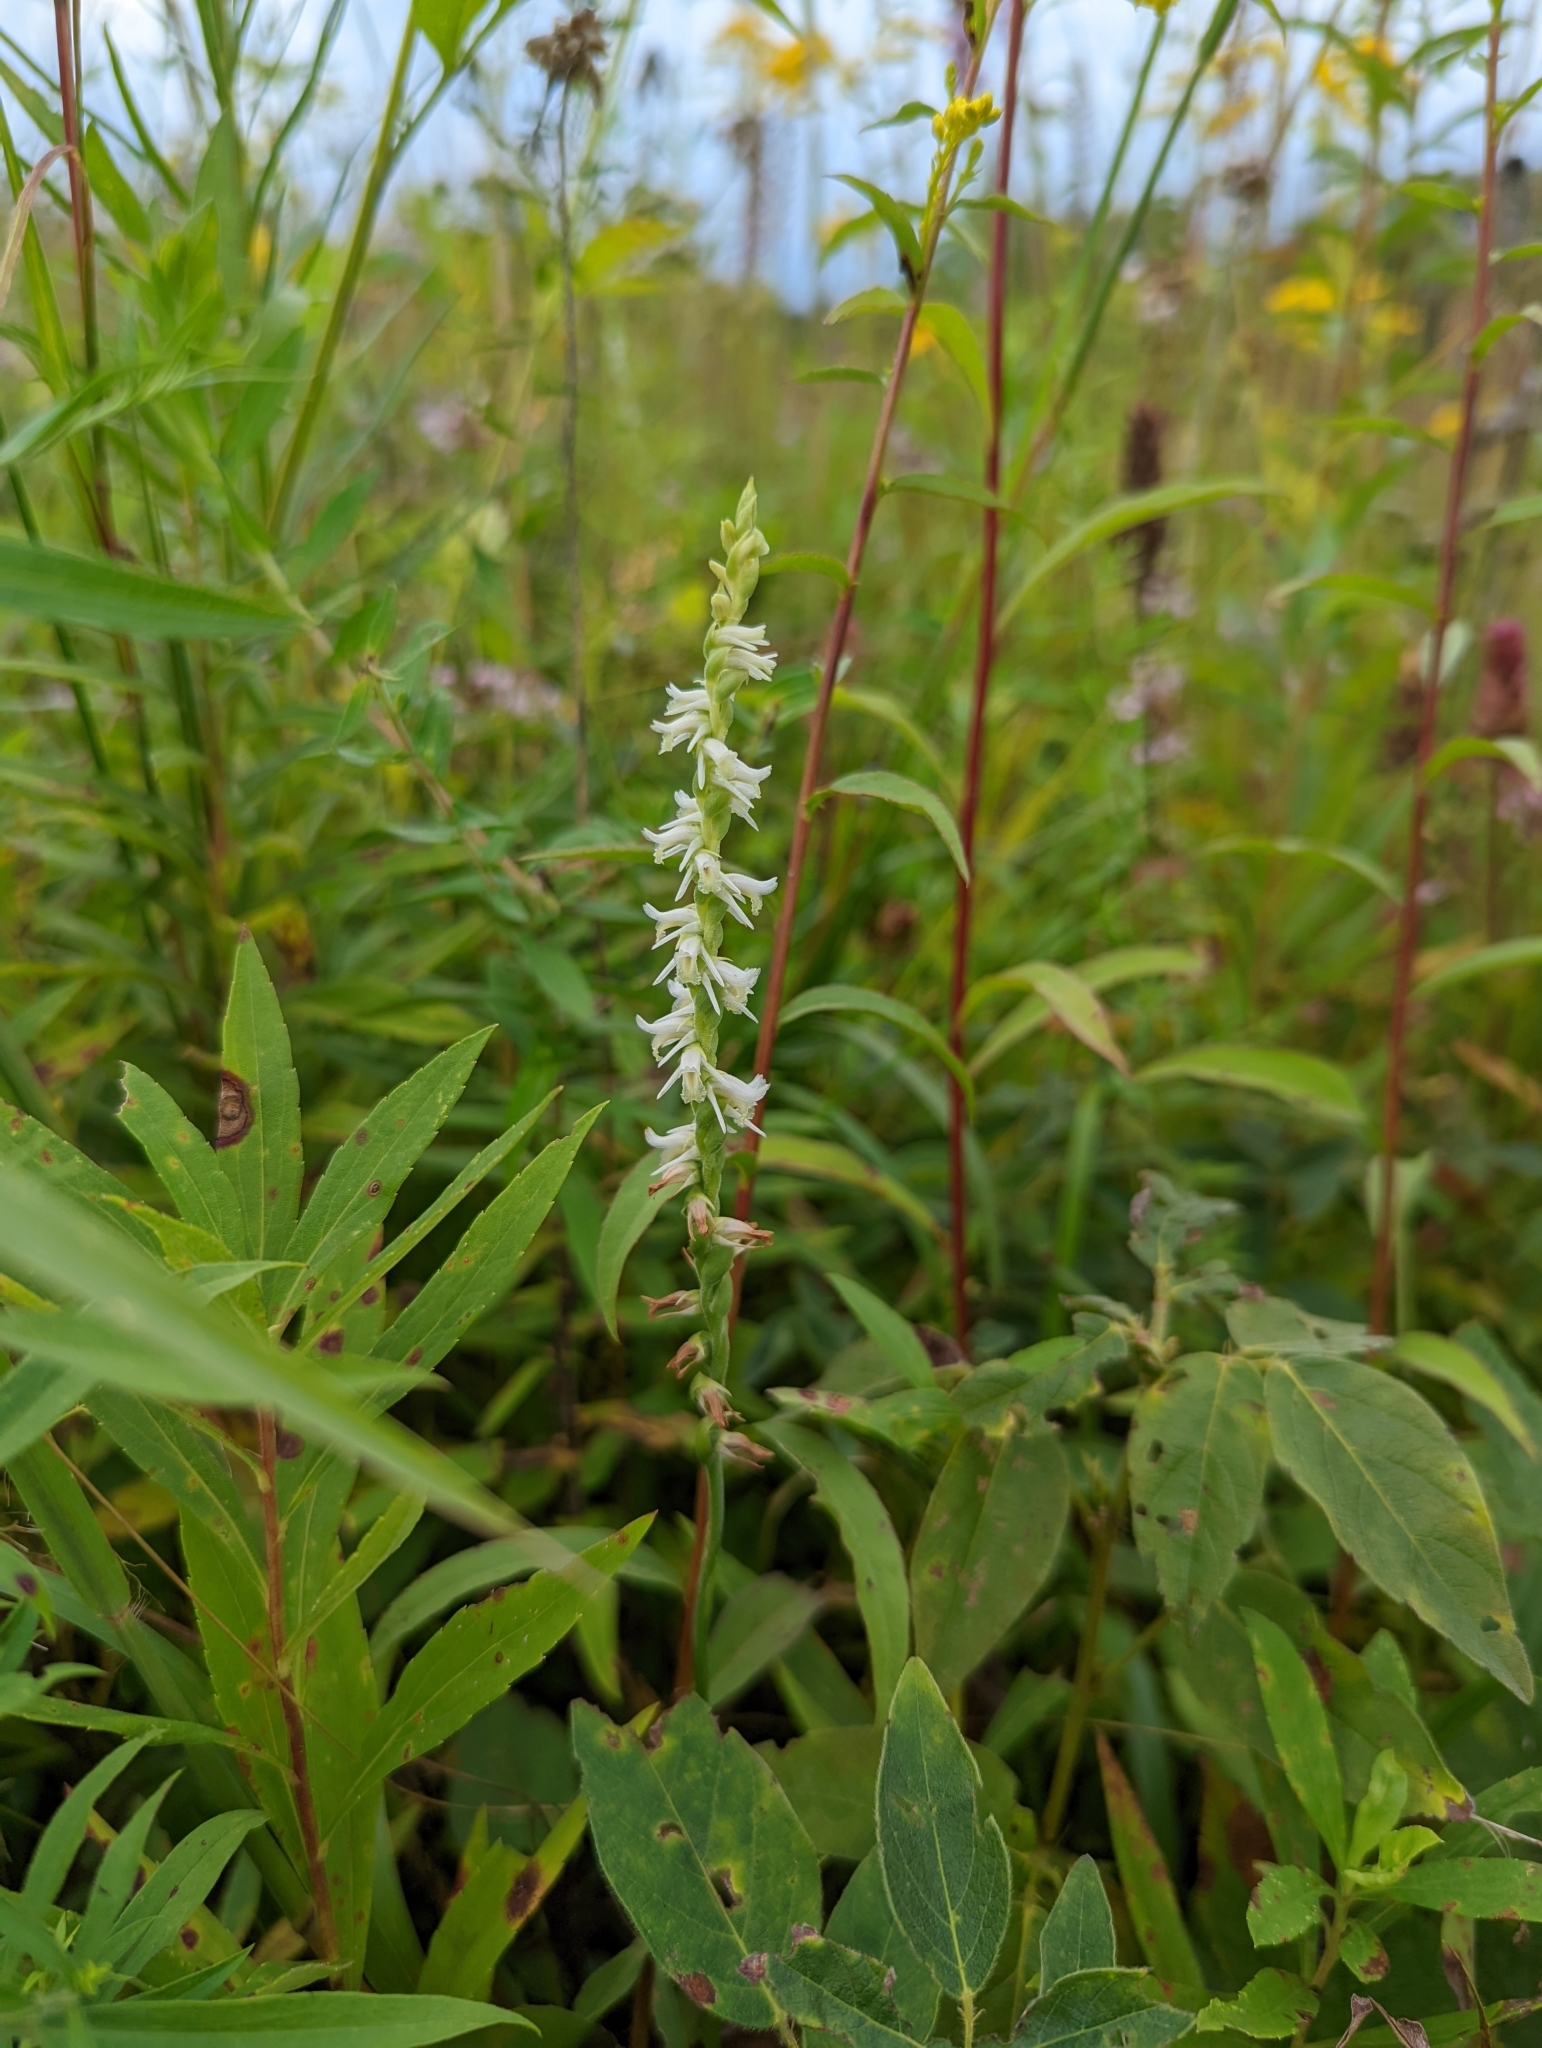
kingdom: Plantae
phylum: Tracheophyta
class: Liliopsida
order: Asparagales
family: Orchidaceae
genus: Spiranthes
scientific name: Spiranthes vernalis
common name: Spring ladies'-tresses
